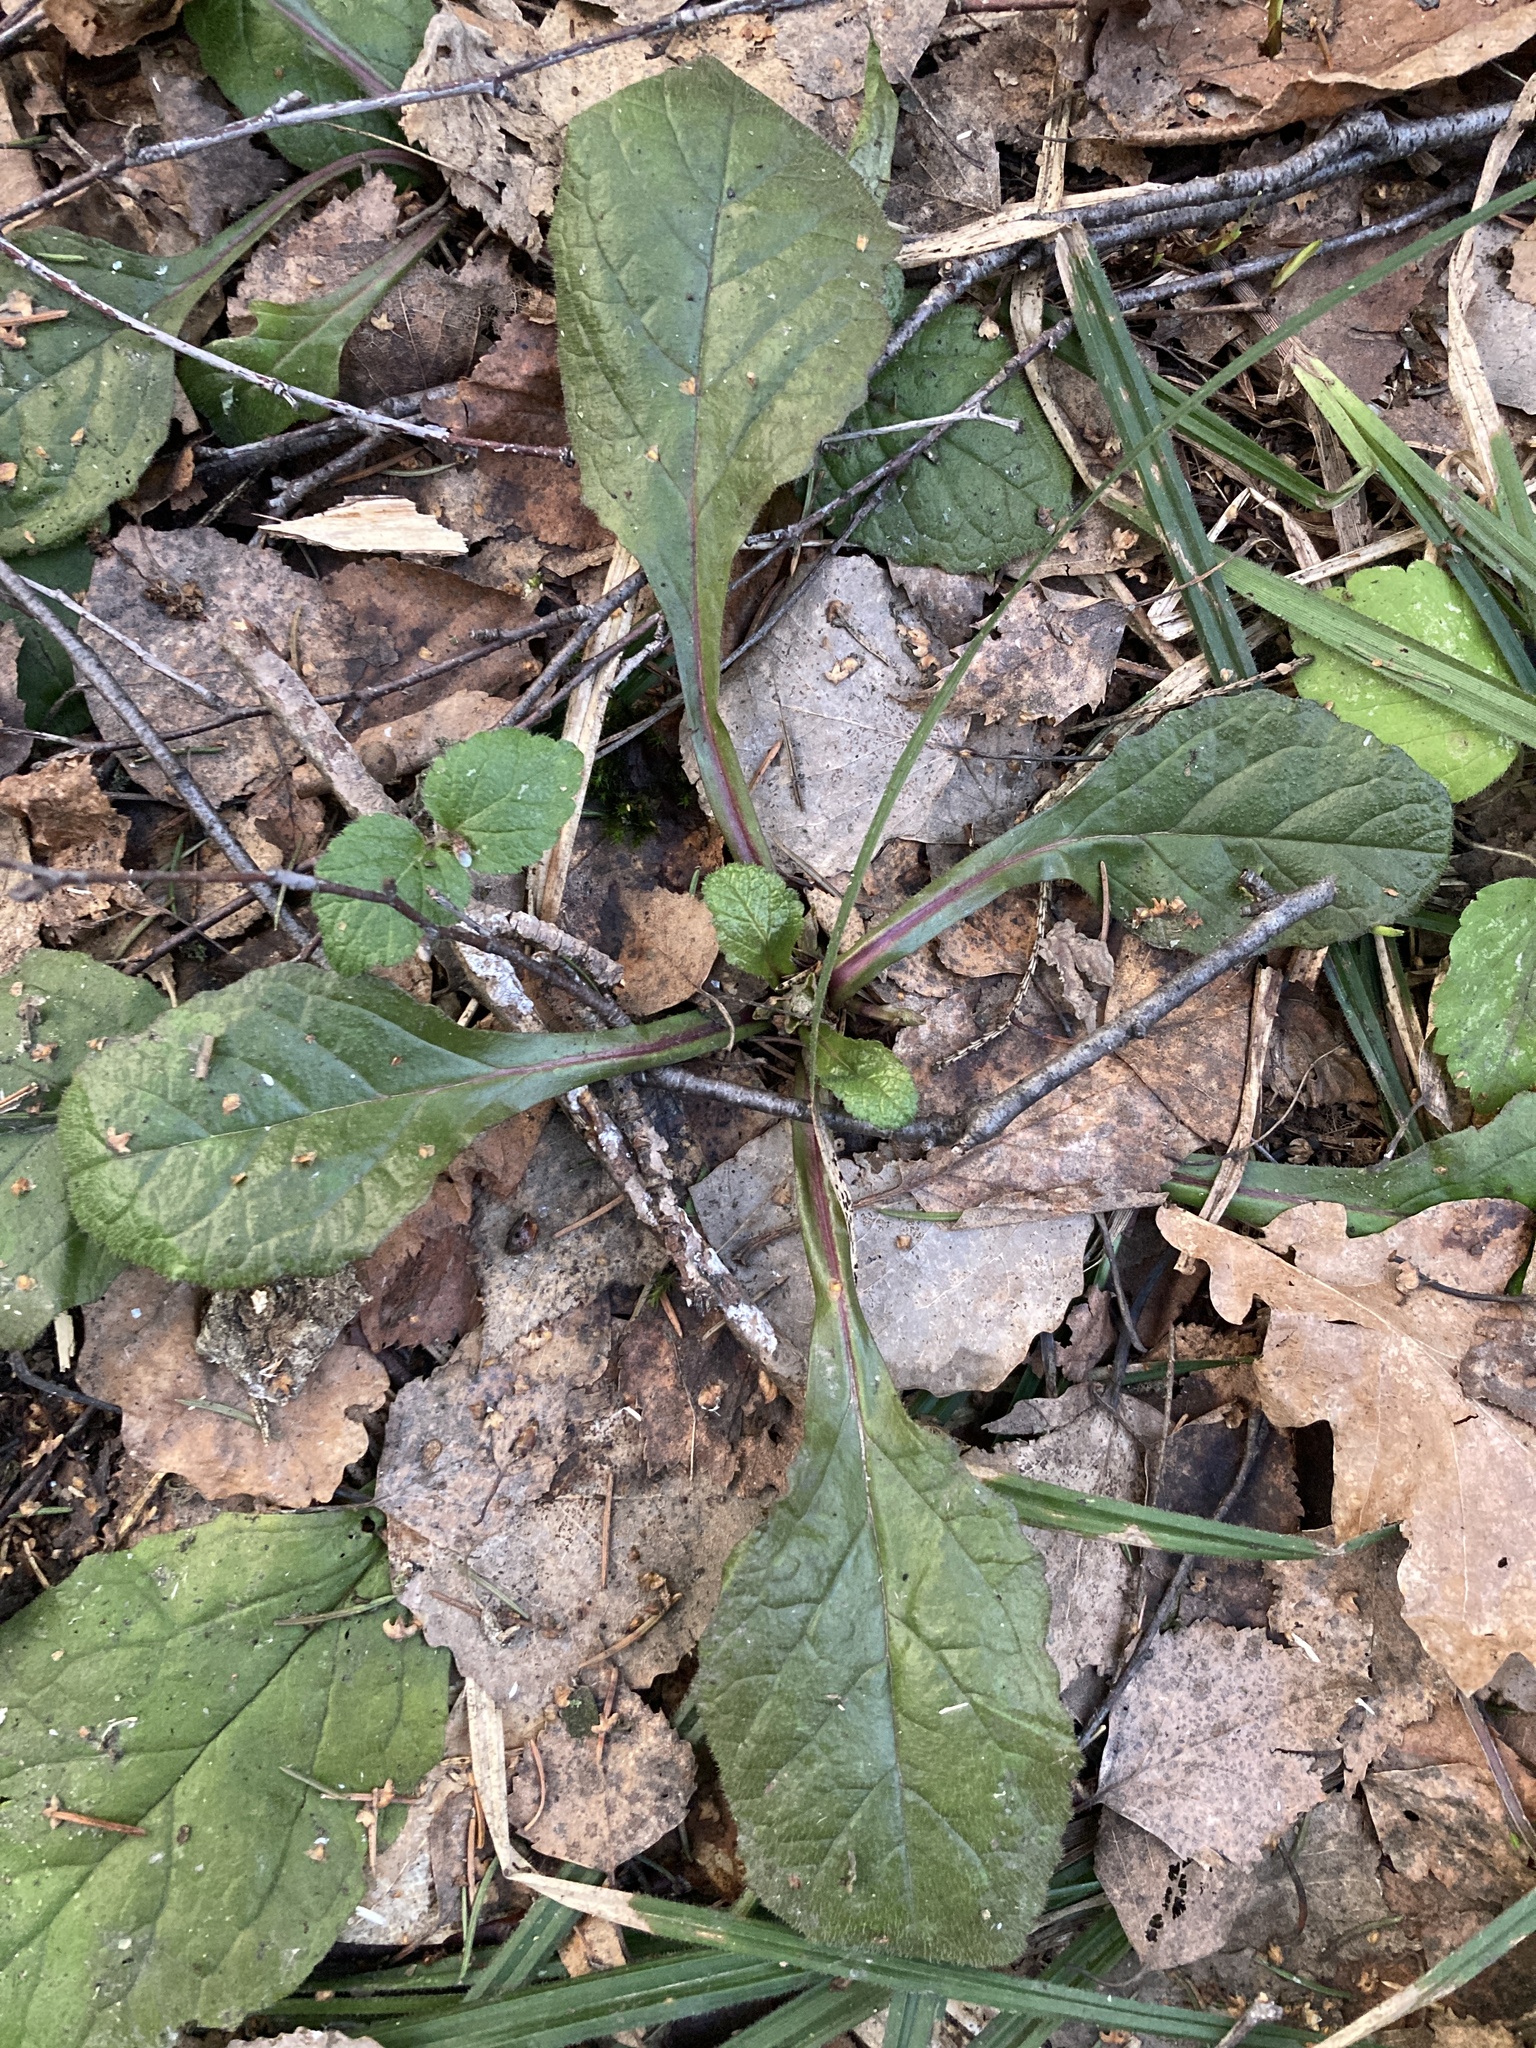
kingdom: Plantae
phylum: Tracheophyta
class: Magnoliopsida
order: Lamiales
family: Lamiaceae
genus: Ajuga
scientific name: Ajuga reptans
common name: Bugle
